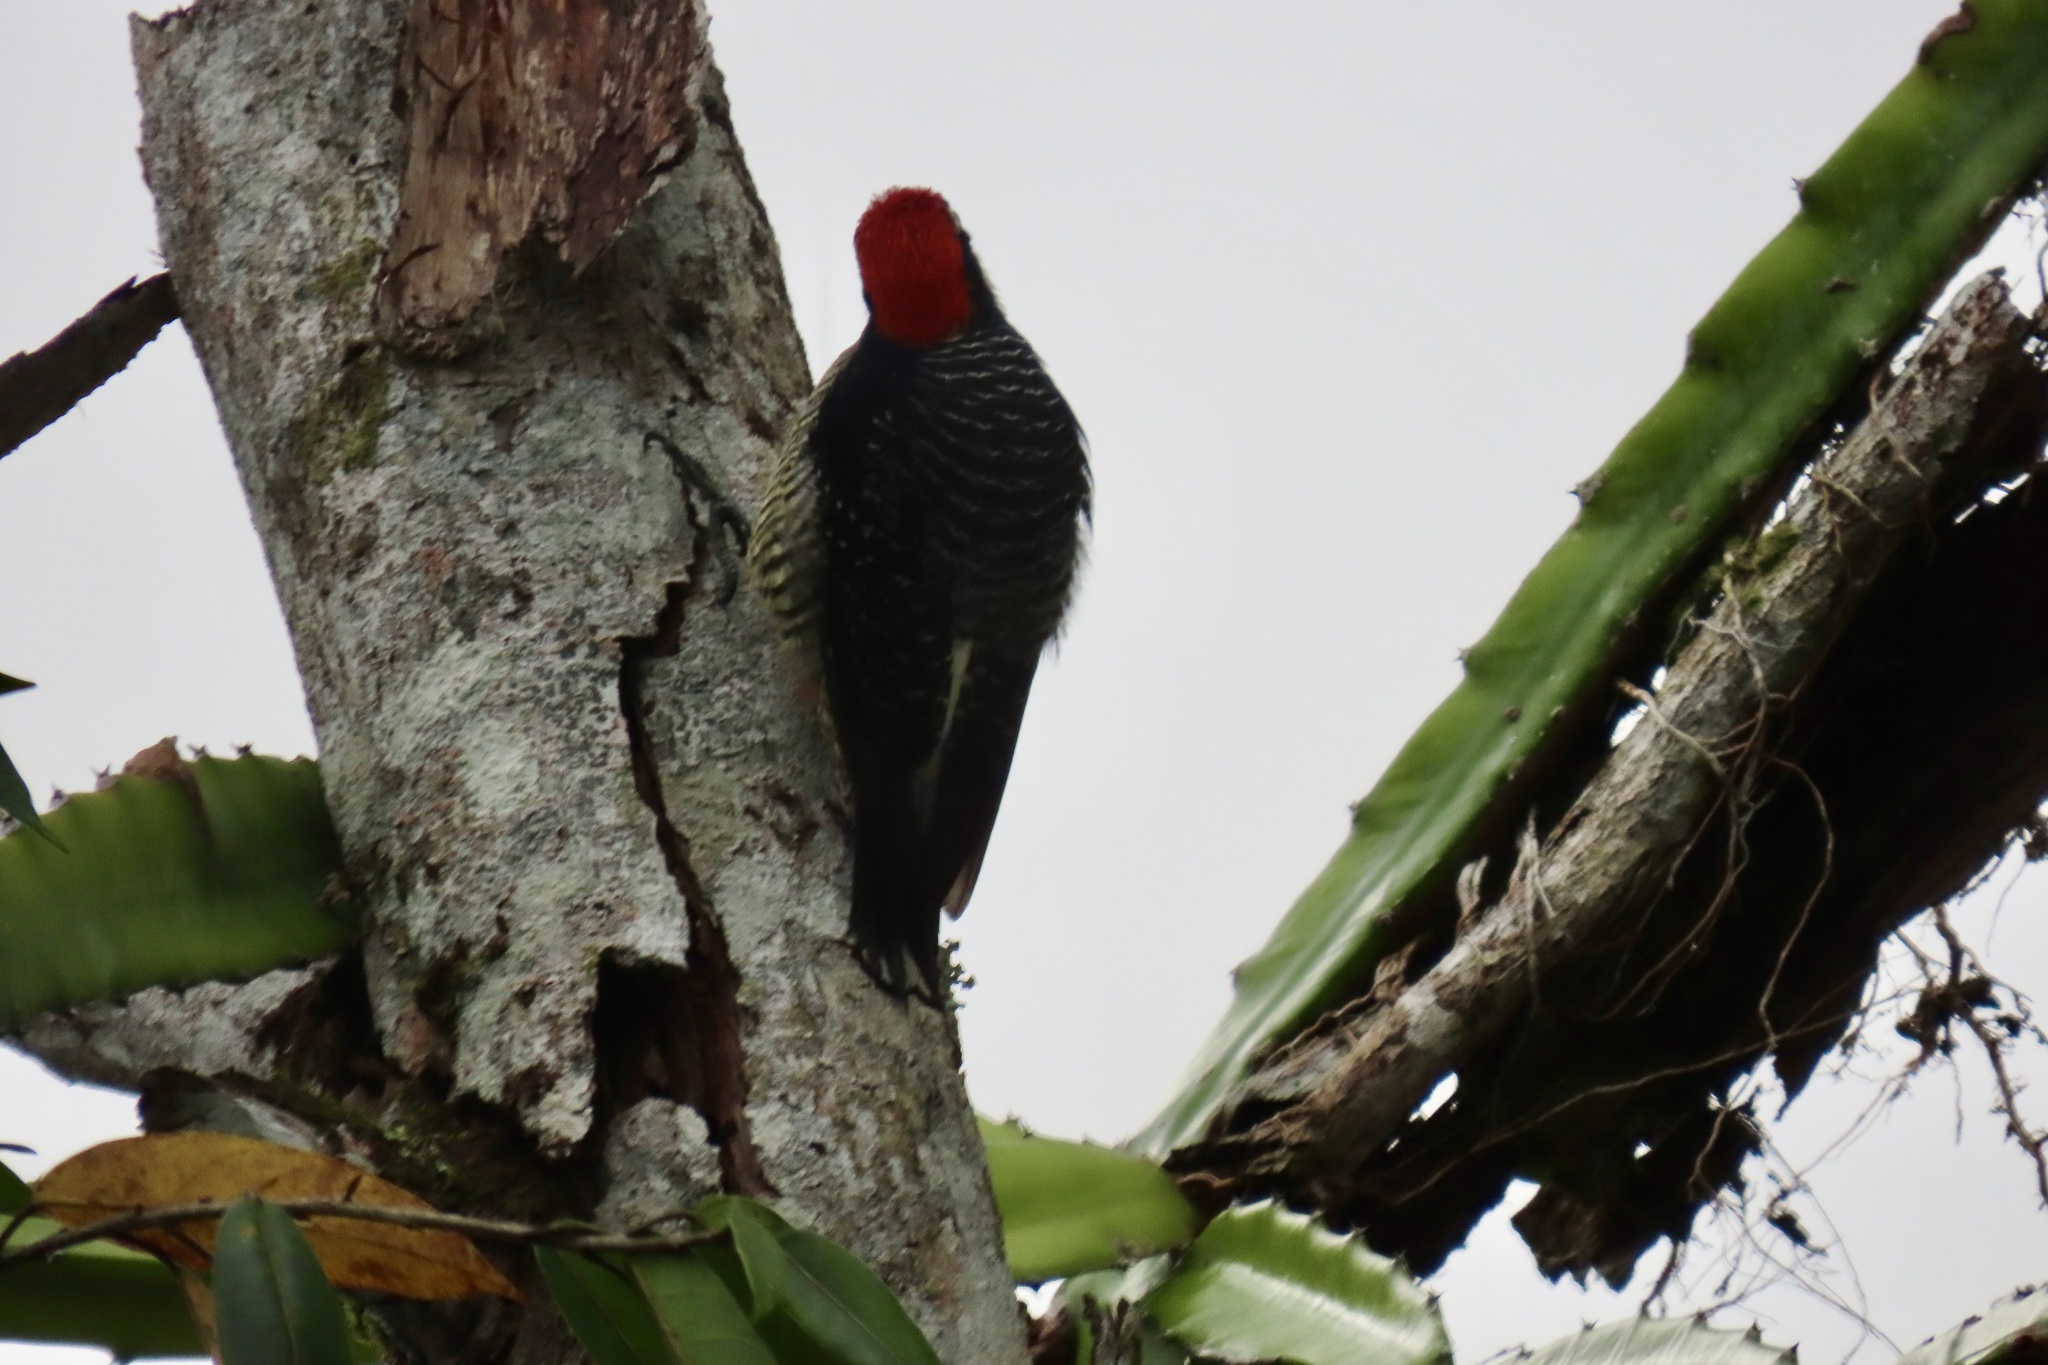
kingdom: Animalia
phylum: Chordata
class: Aves
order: Piciformes
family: Picidae
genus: Melanerpes
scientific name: Melanerpes pucherani
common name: Black-cheeked woodpecker
